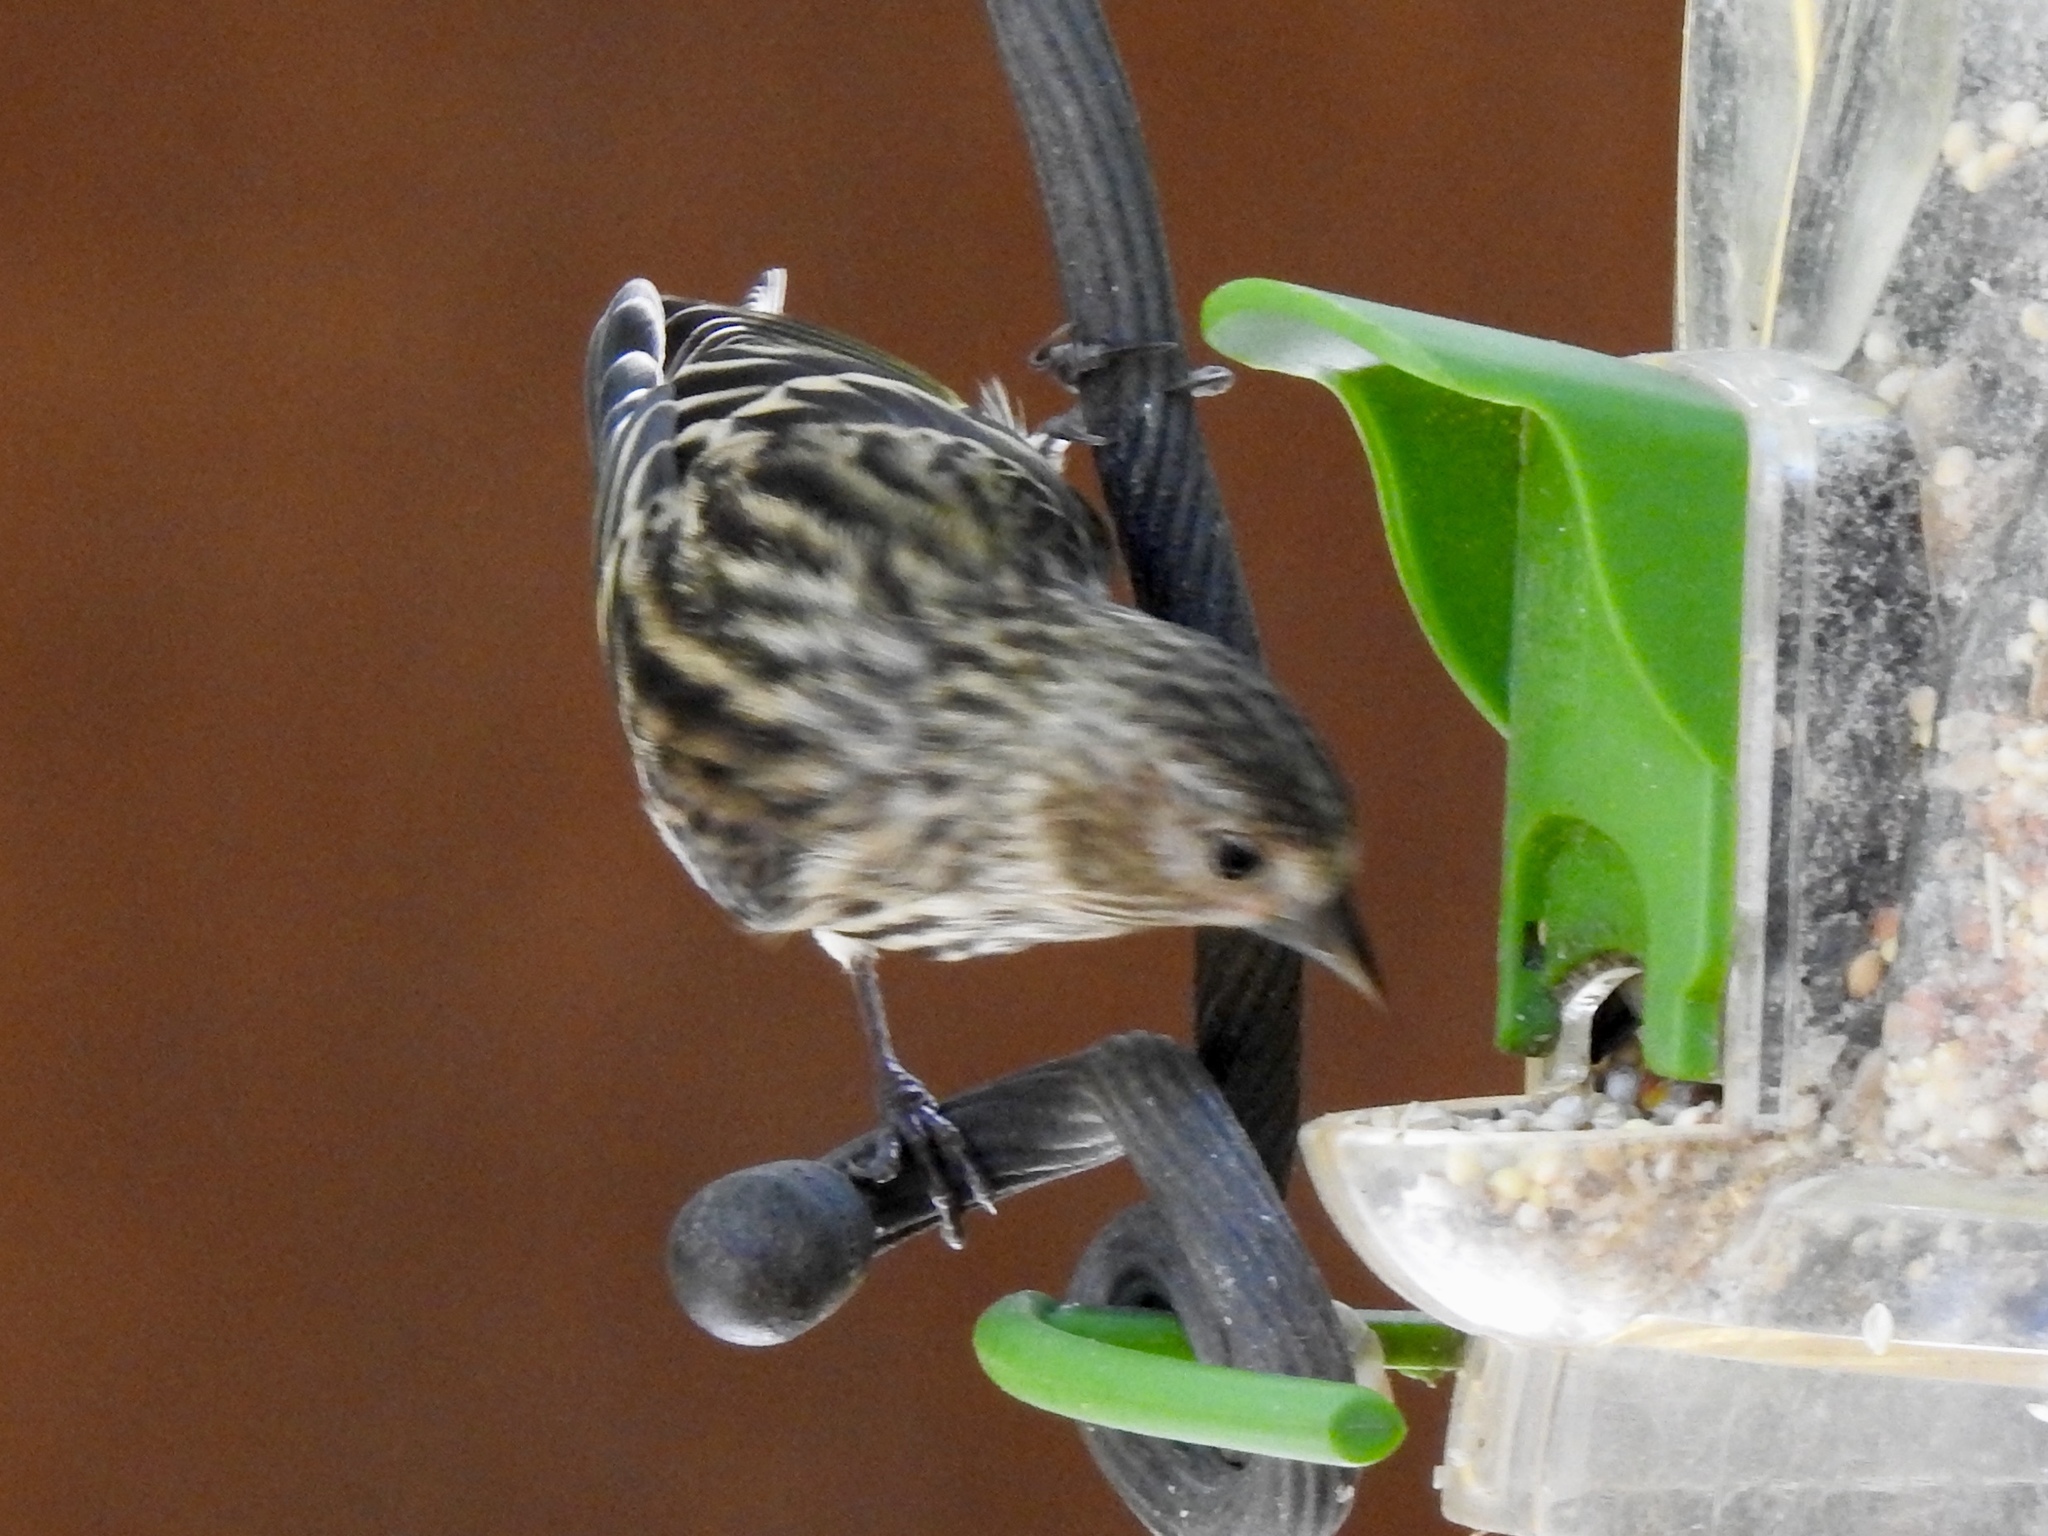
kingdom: Animalia
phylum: Chordata
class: Aves
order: Passeriformes
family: Fringillidae
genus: Spinus
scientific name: Spinus pinus
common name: Pine siskin
